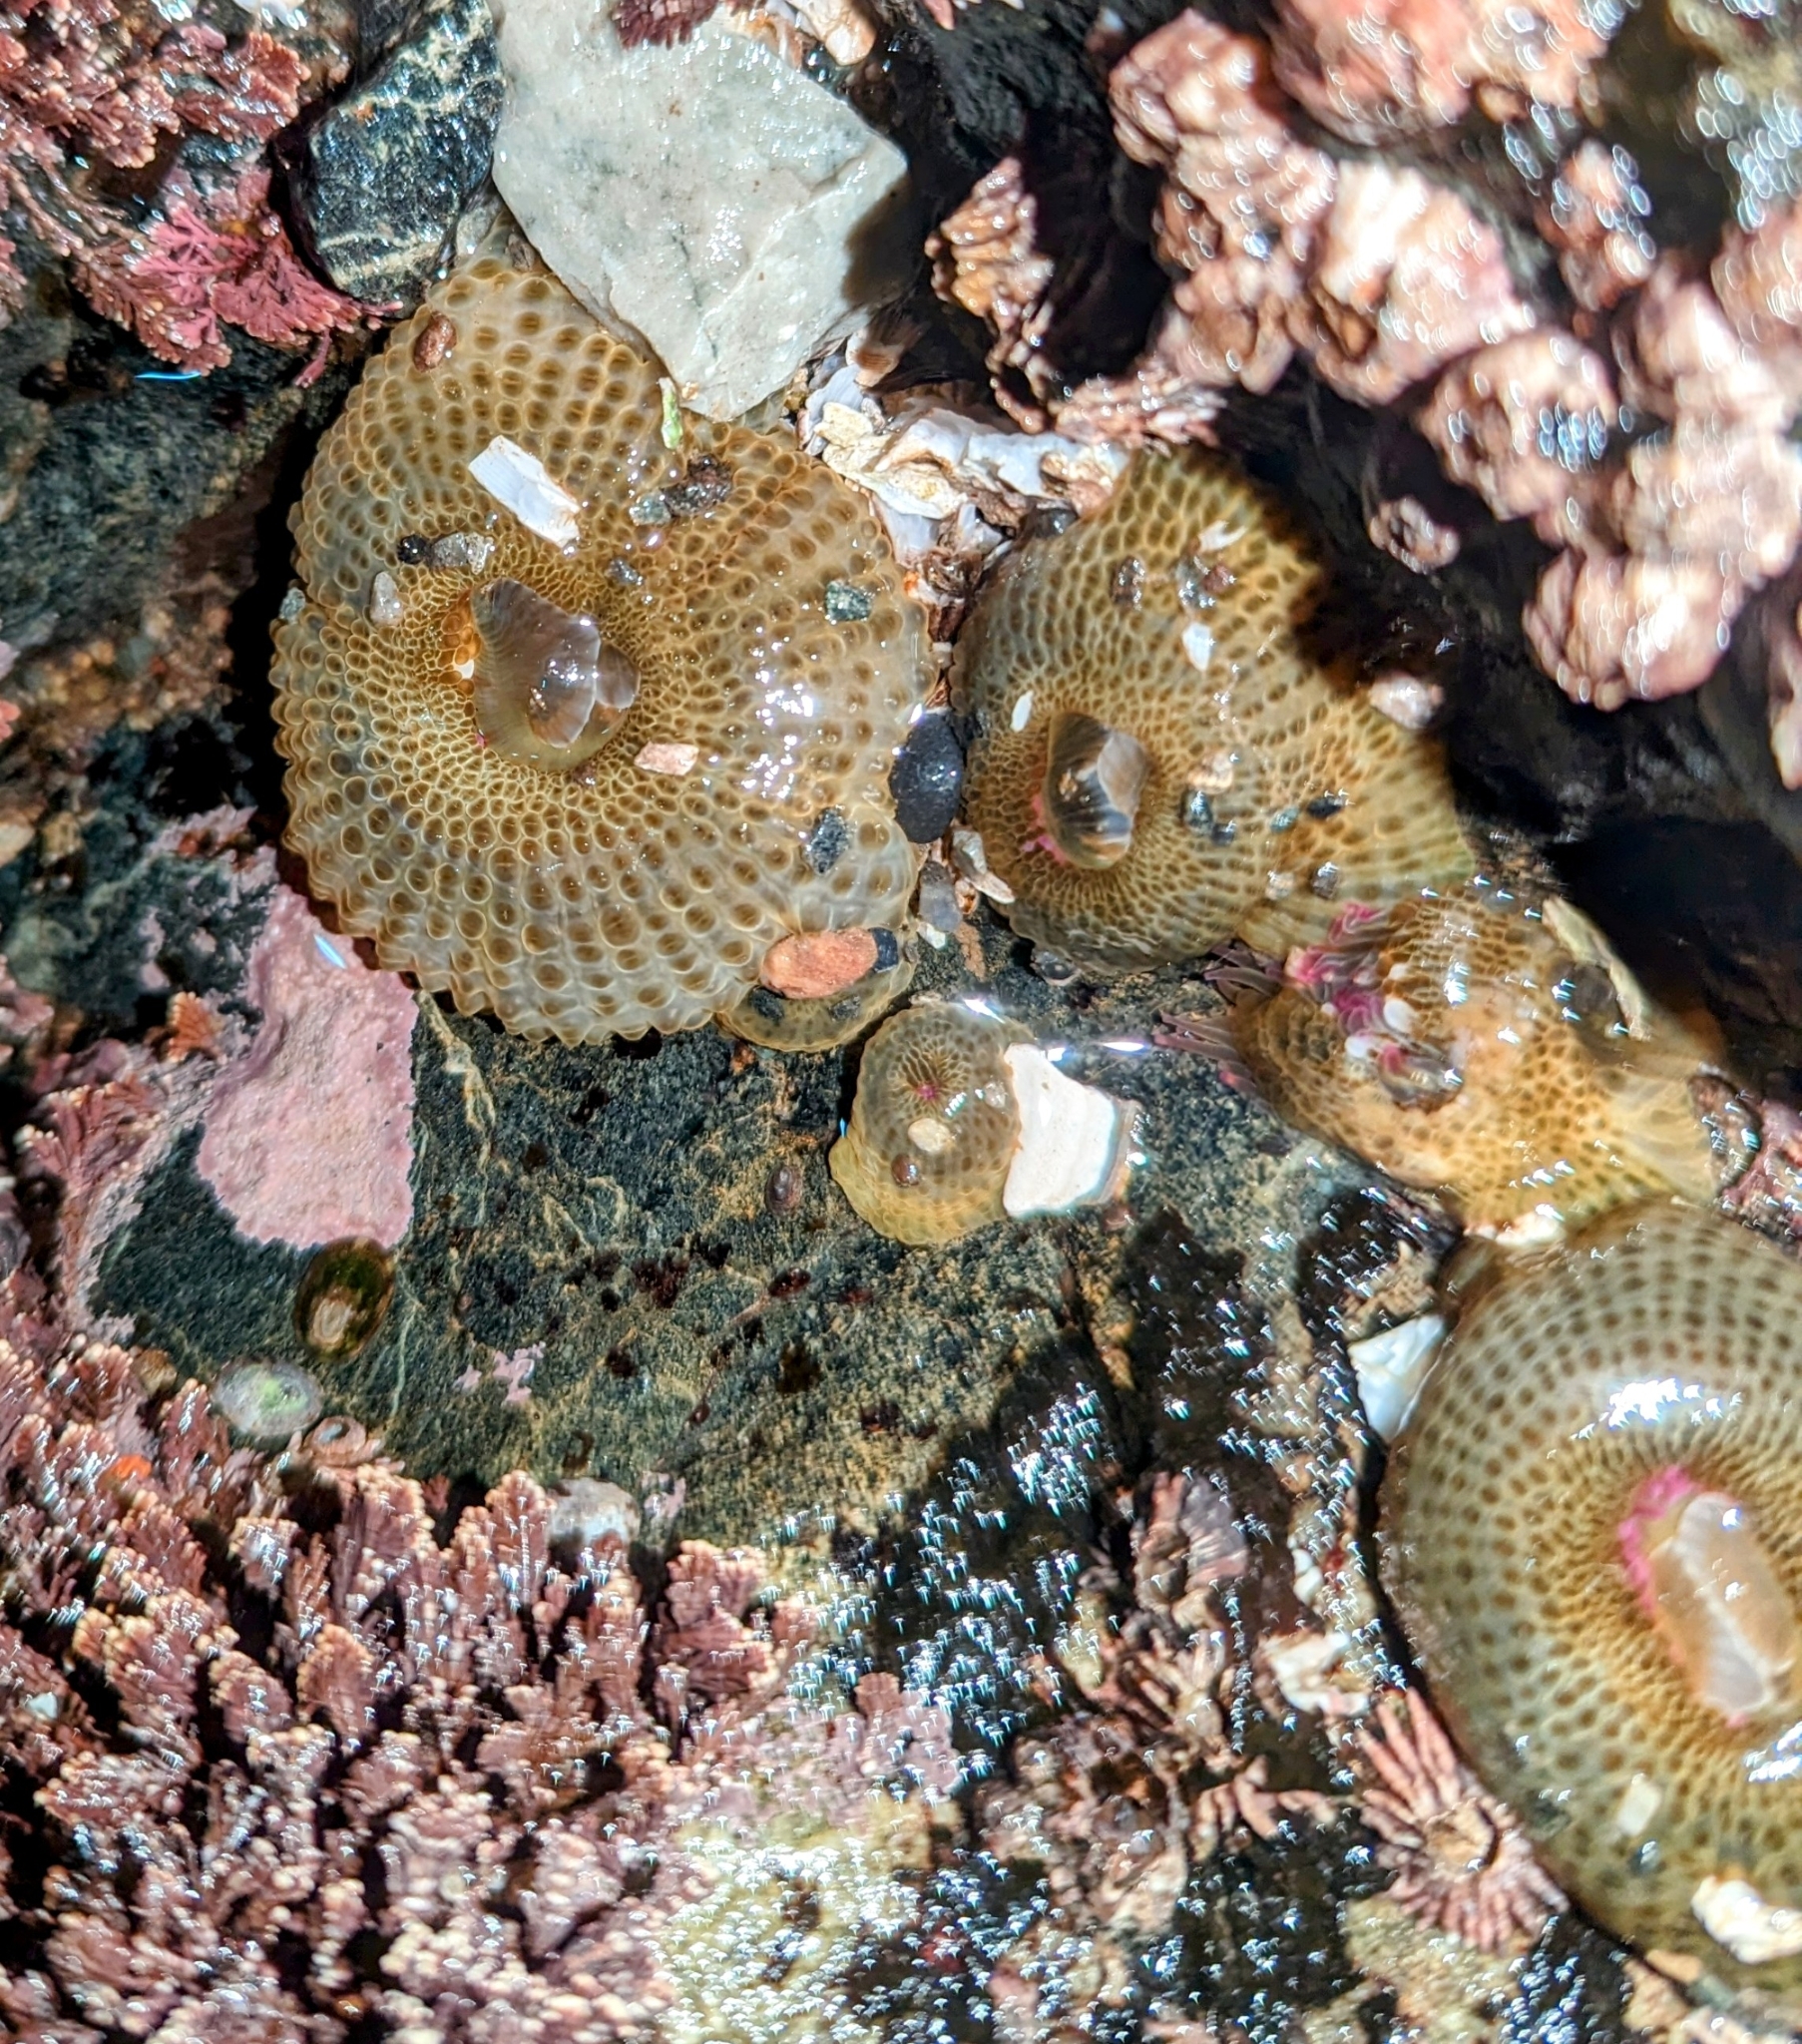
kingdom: Animalia
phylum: Cnidaria
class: Anthozoa
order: Actiniaria
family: Actiniidae
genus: Anthopleura
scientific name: Anthopleura elegantissima
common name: Clonal anemone
